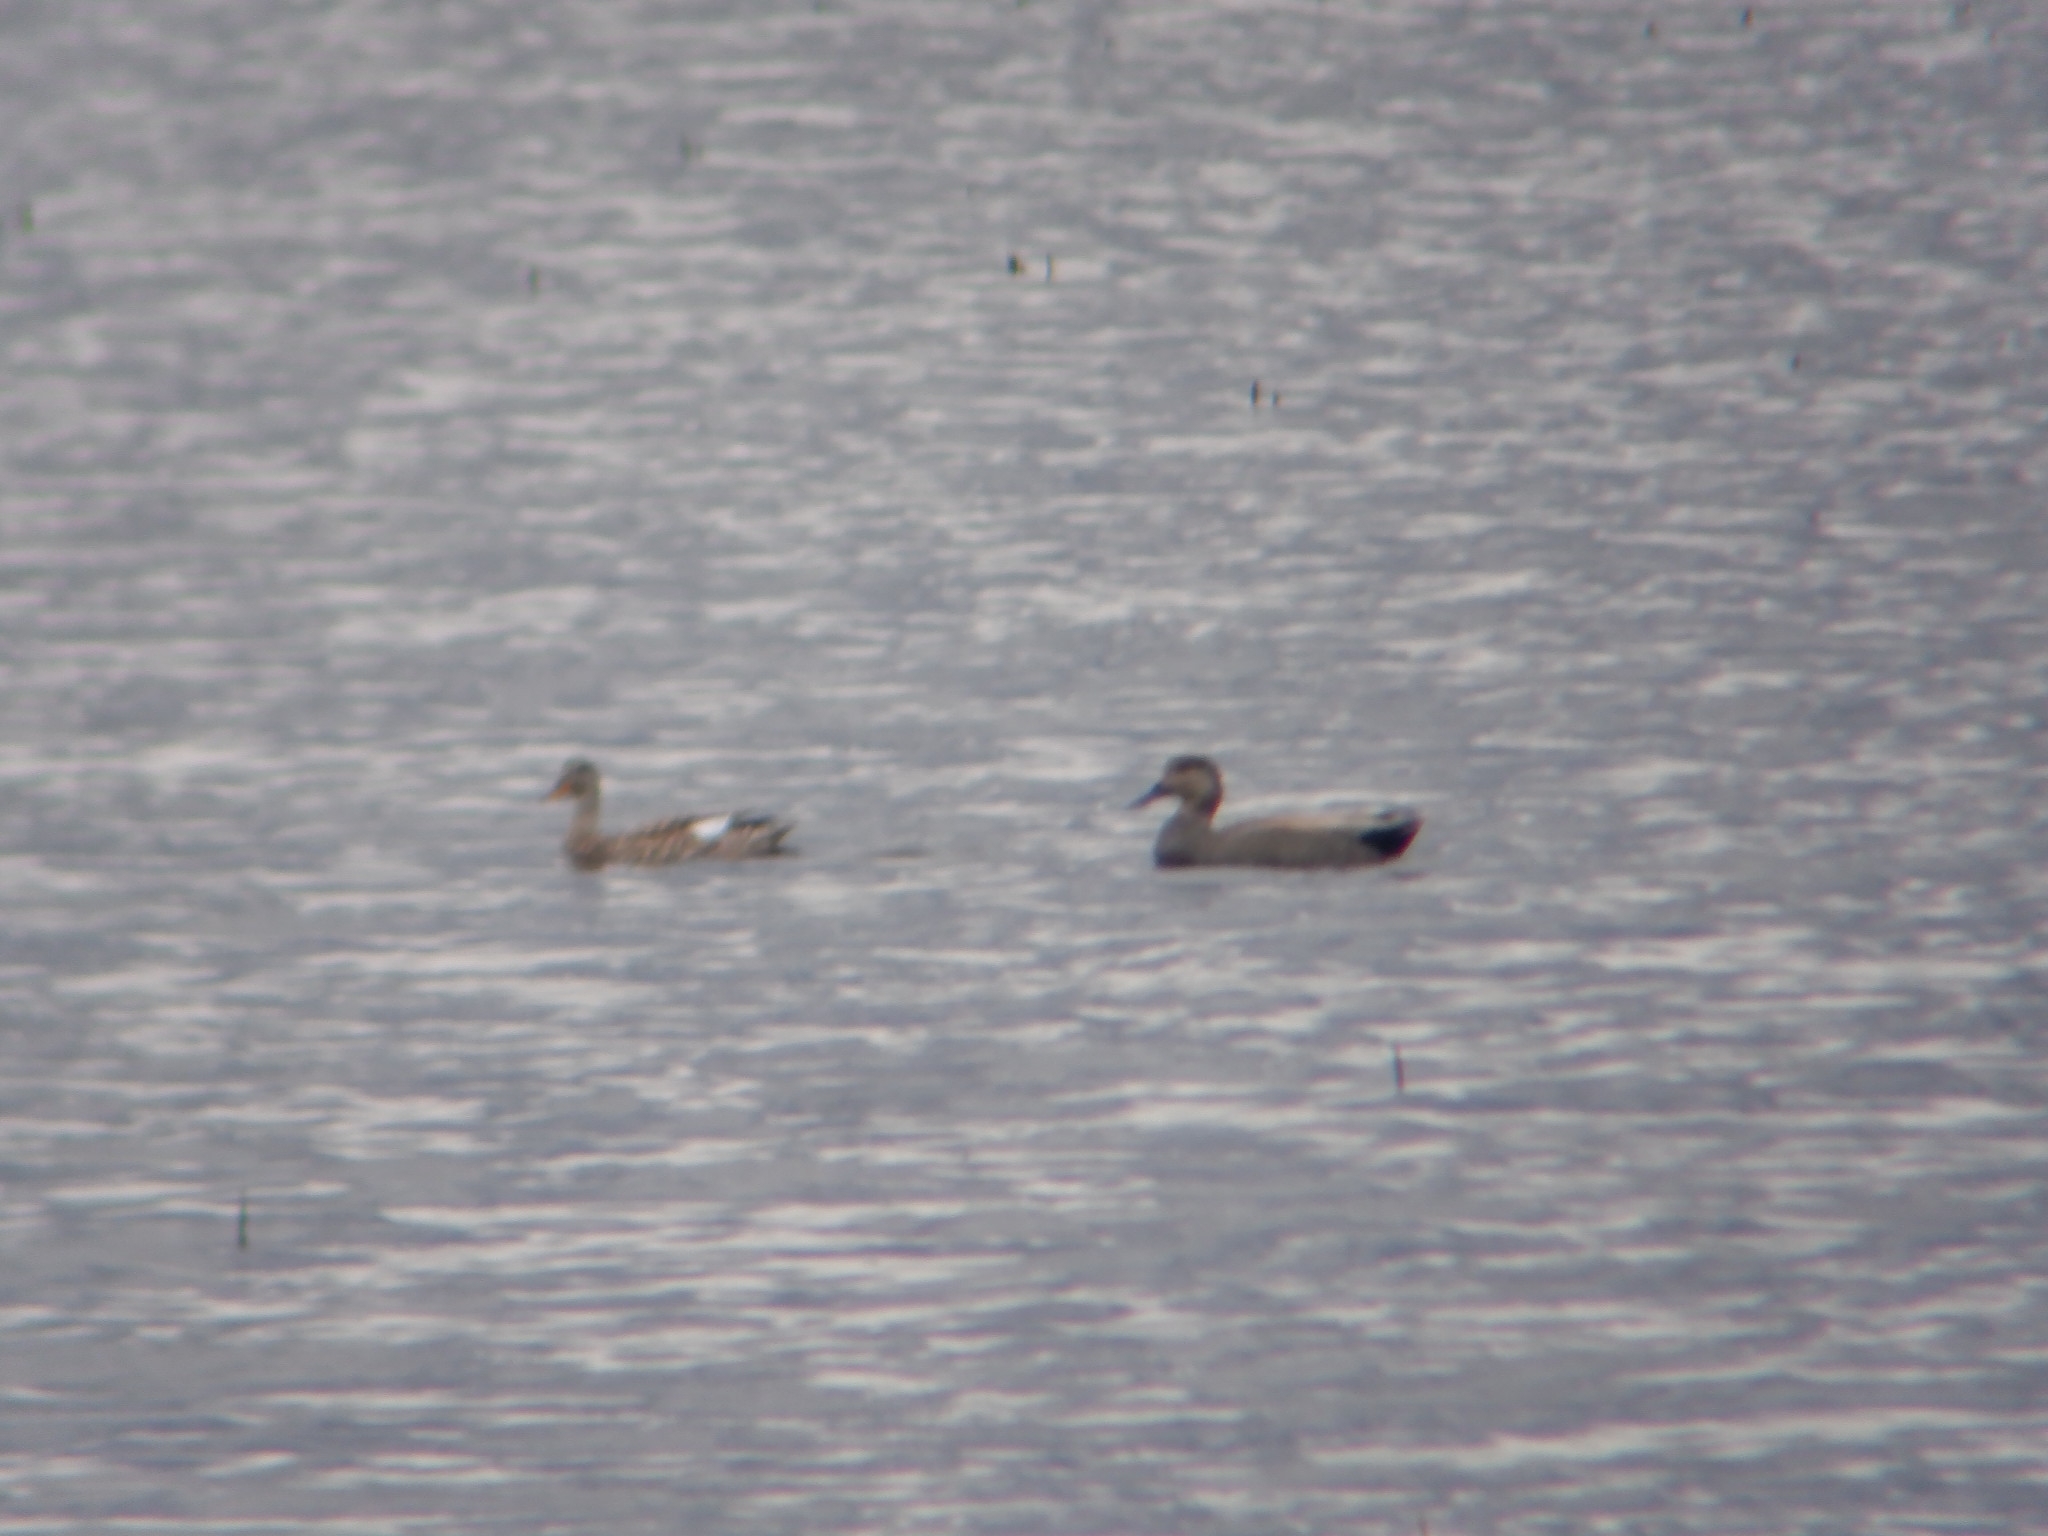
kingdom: Animalia
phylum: Chordata
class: Aves
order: Anseriformes
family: Anatidae
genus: Mareca
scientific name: Mareca strepera
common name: Gadwall
